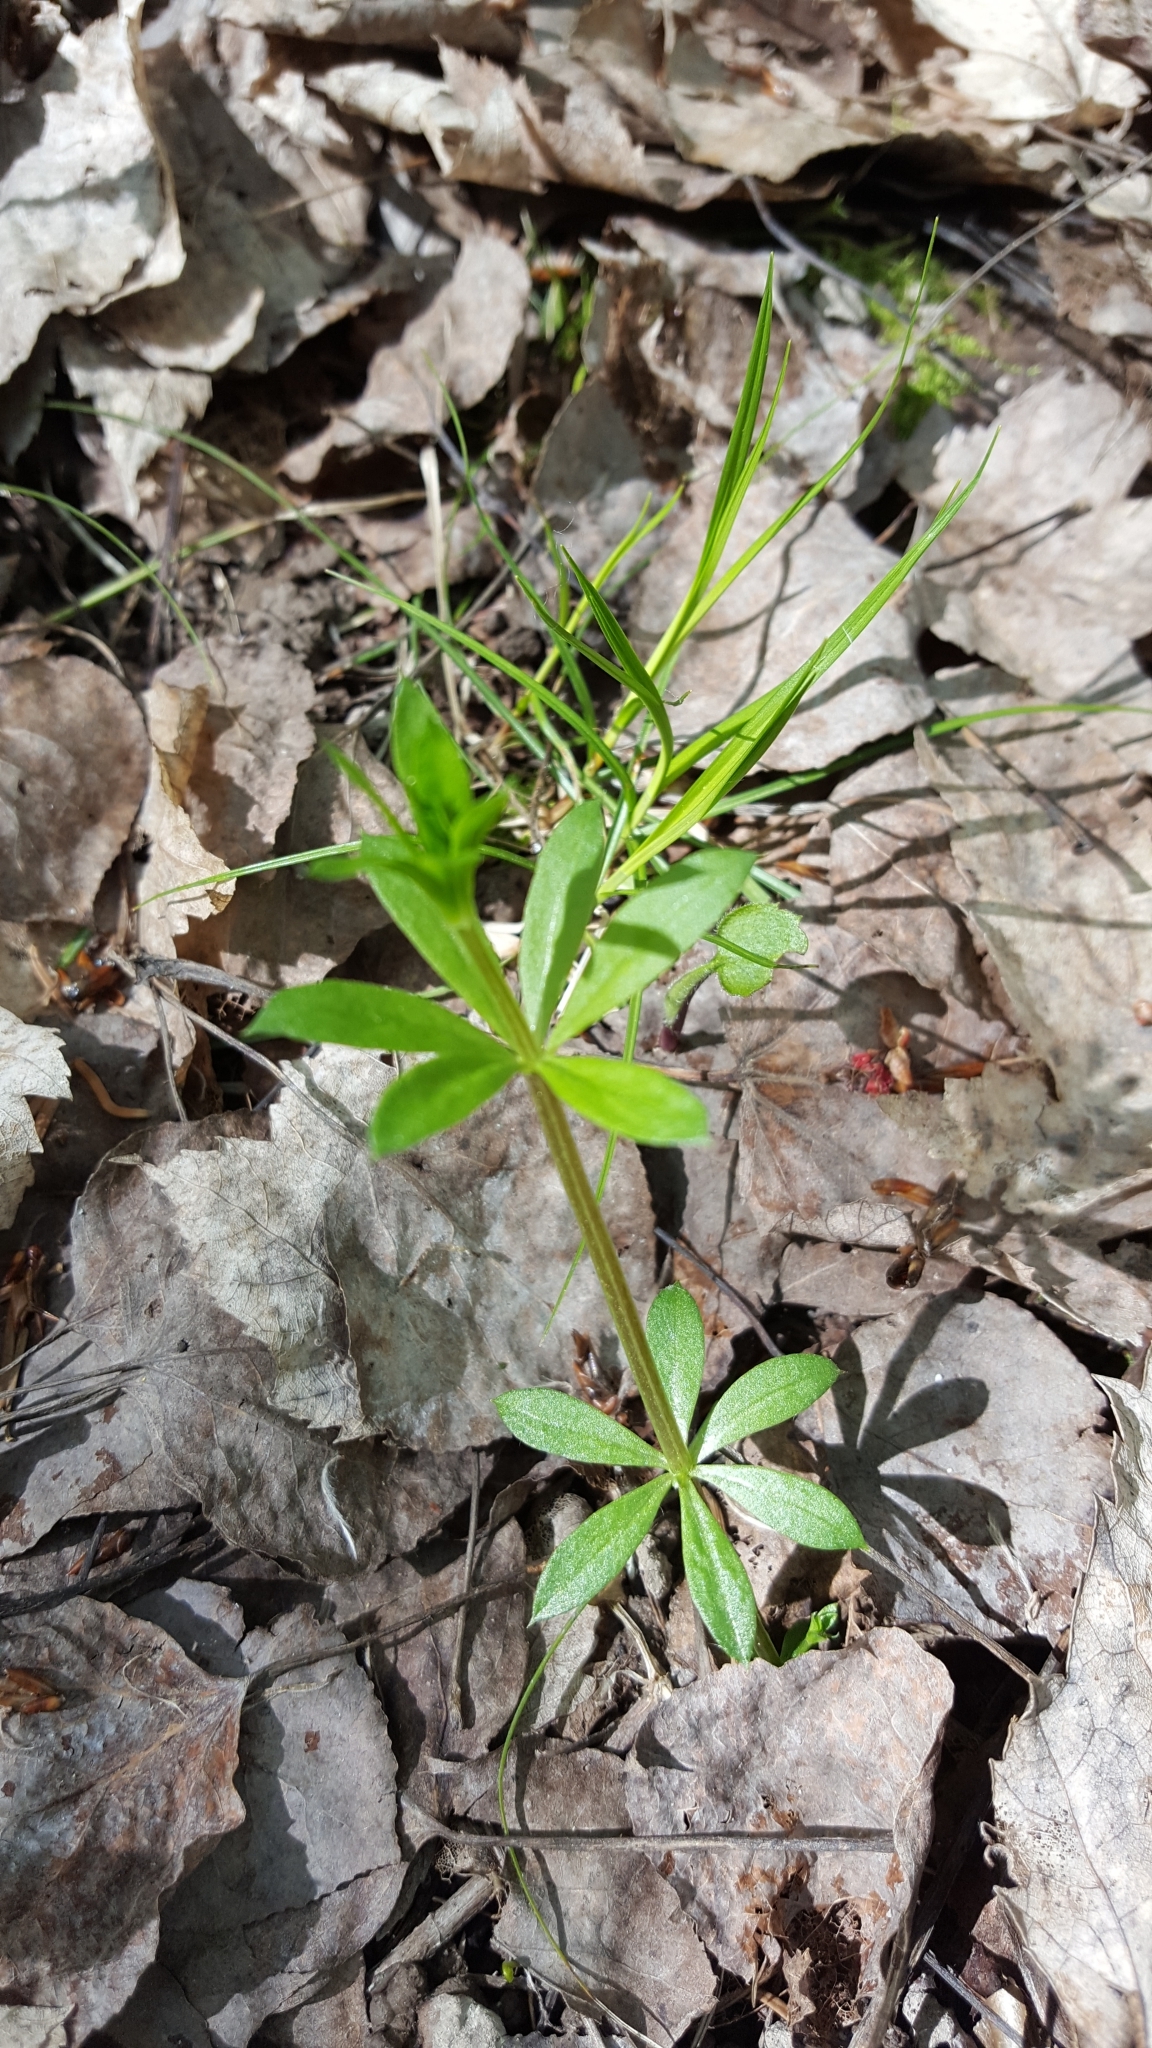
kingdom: Plantae
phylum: Tracheophyta
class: Magnoliopsida
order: Gentianales
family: Rubiaceae
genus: Galium
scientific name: Galium triflorum
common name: Fragrant bedstraw
